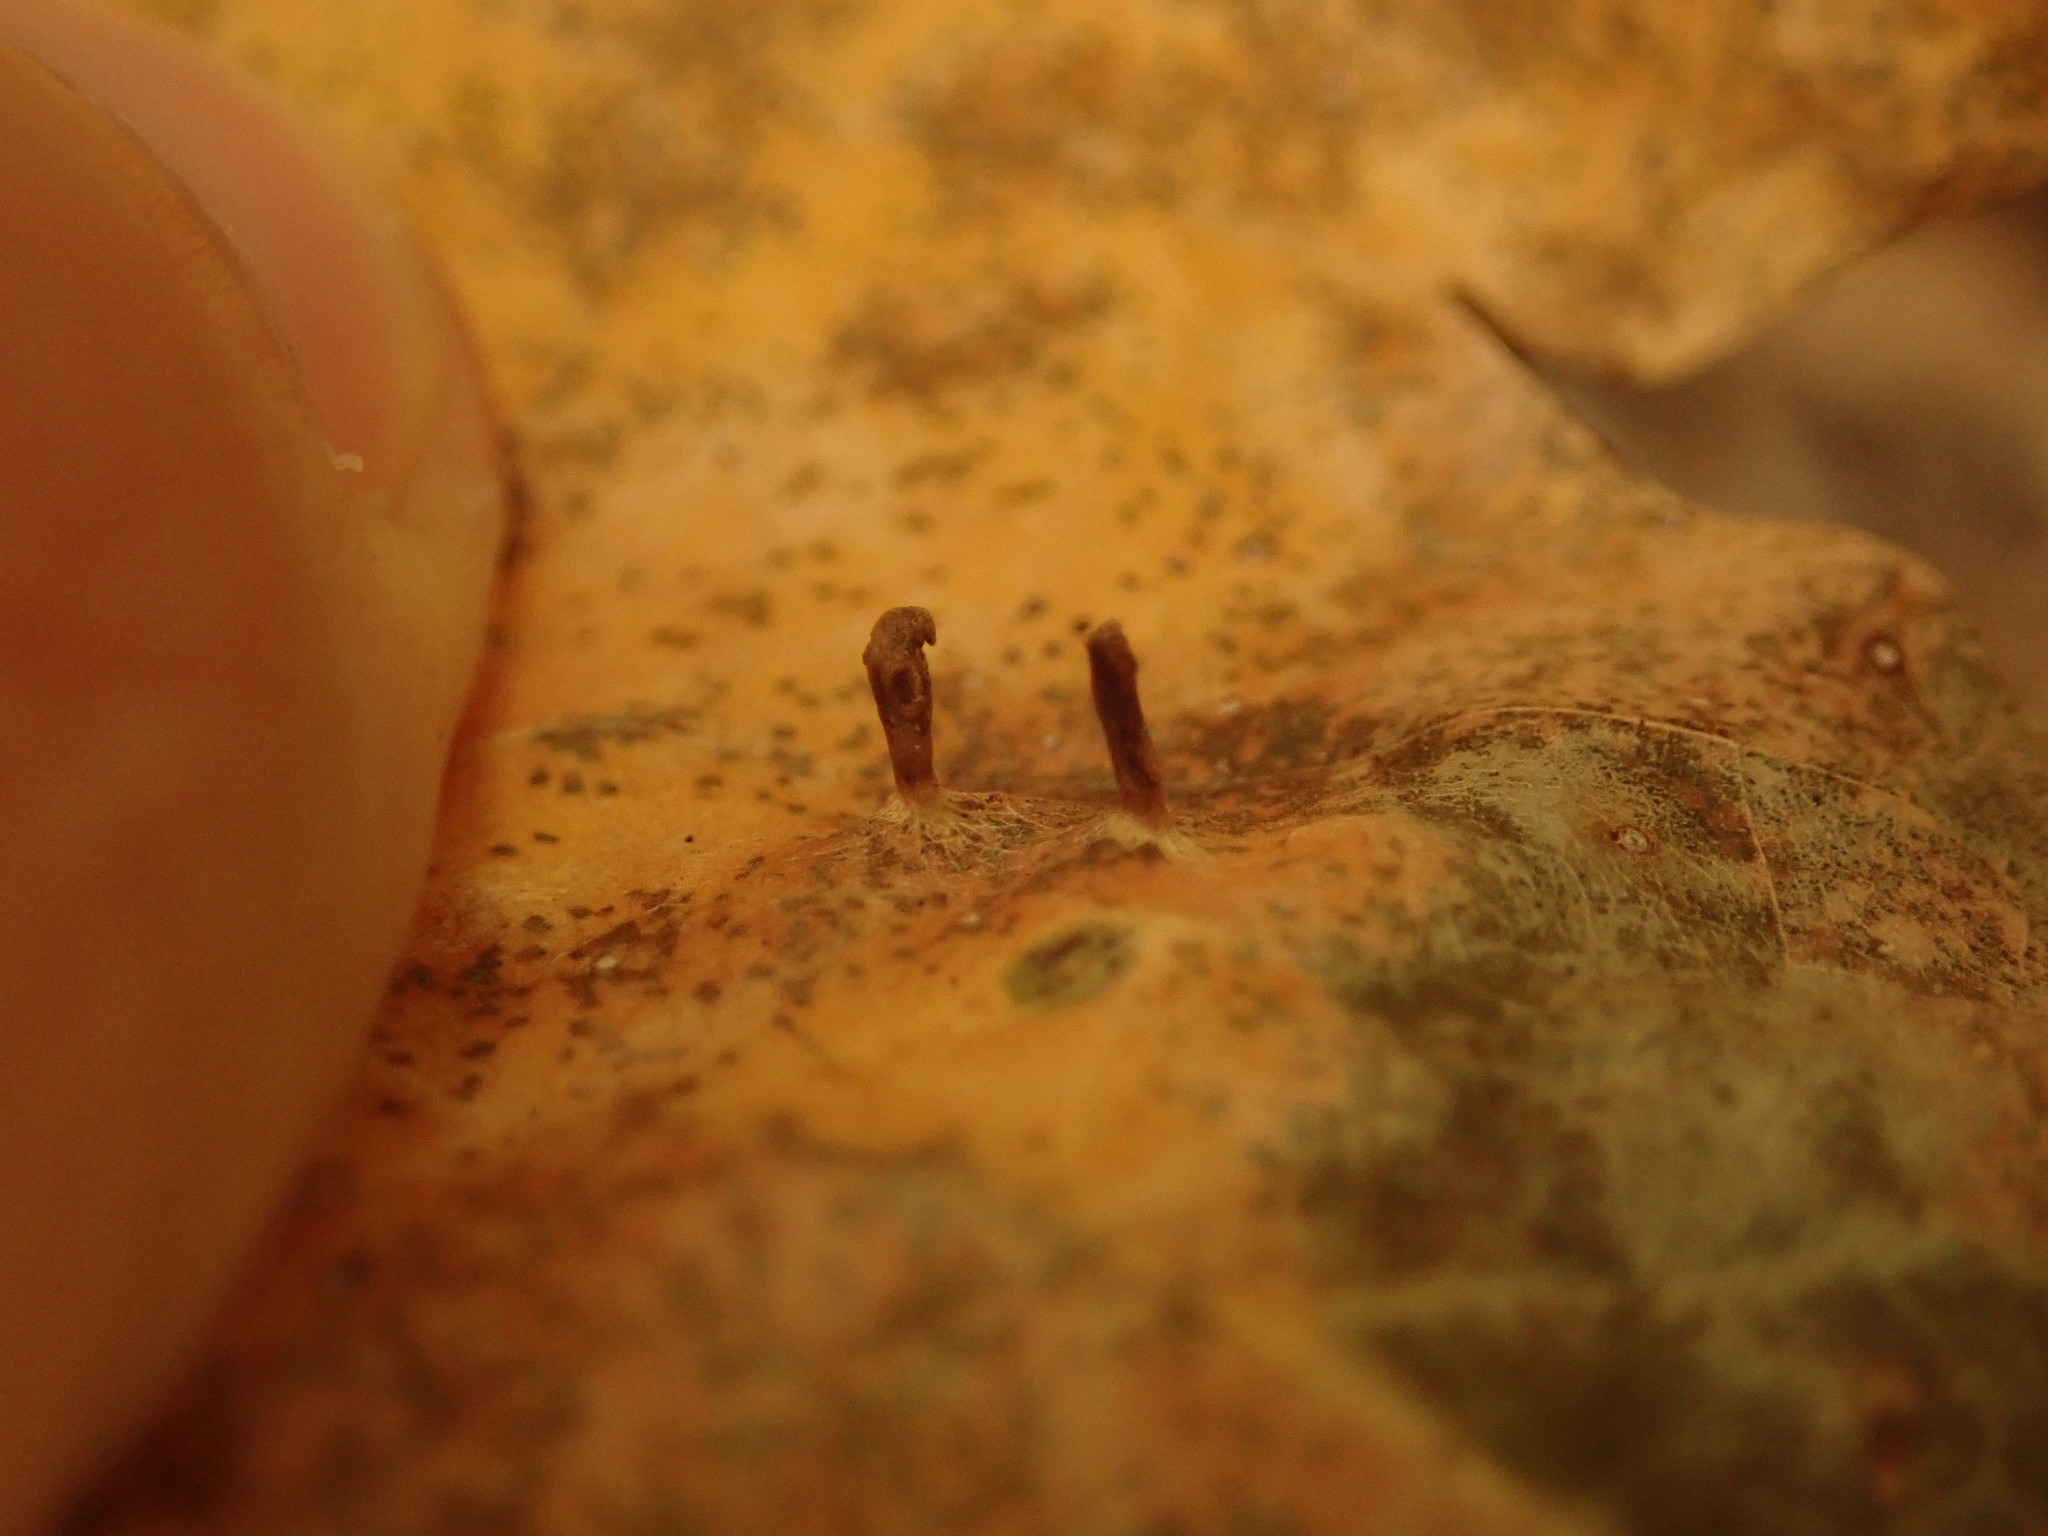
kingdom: Animalia
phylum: Arthropoda
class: Arachnida
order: Trombidiformes
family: Eriophyidae
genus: Vasates
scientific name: Vasates aceriscrumena
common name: Maple spindle gall mite
